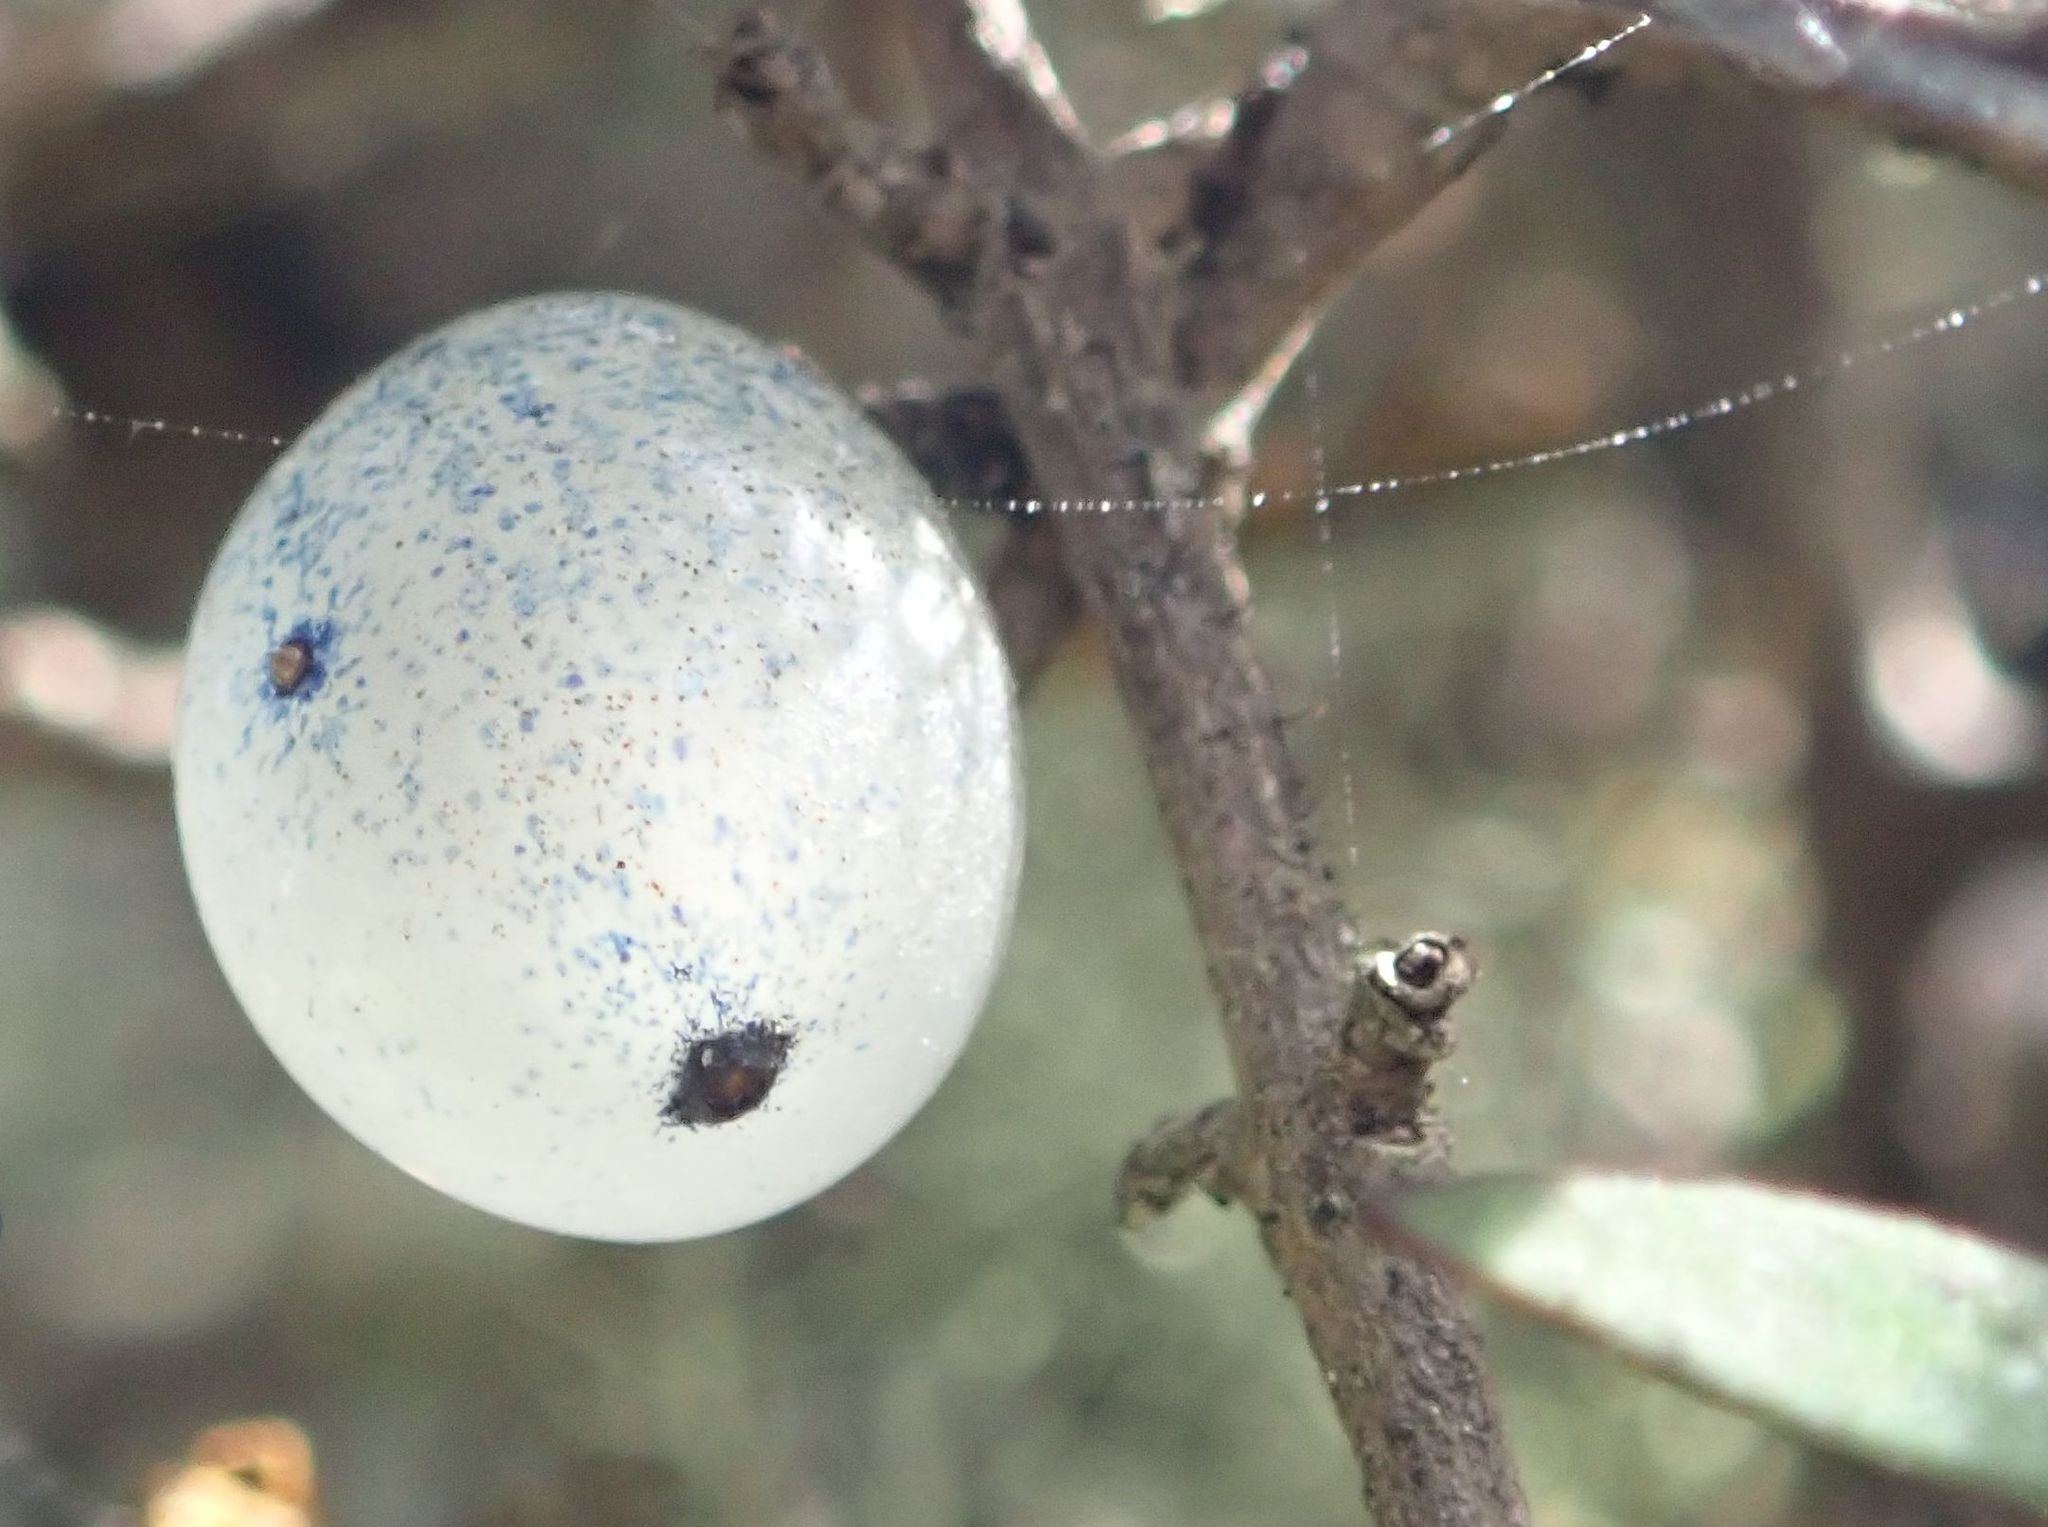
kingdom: Plantae
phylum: Tracheophyta
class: Magnoliopsida
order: Gentianales
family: Rubiaceae
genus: Coprosma
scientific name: Coprosma propinqua
